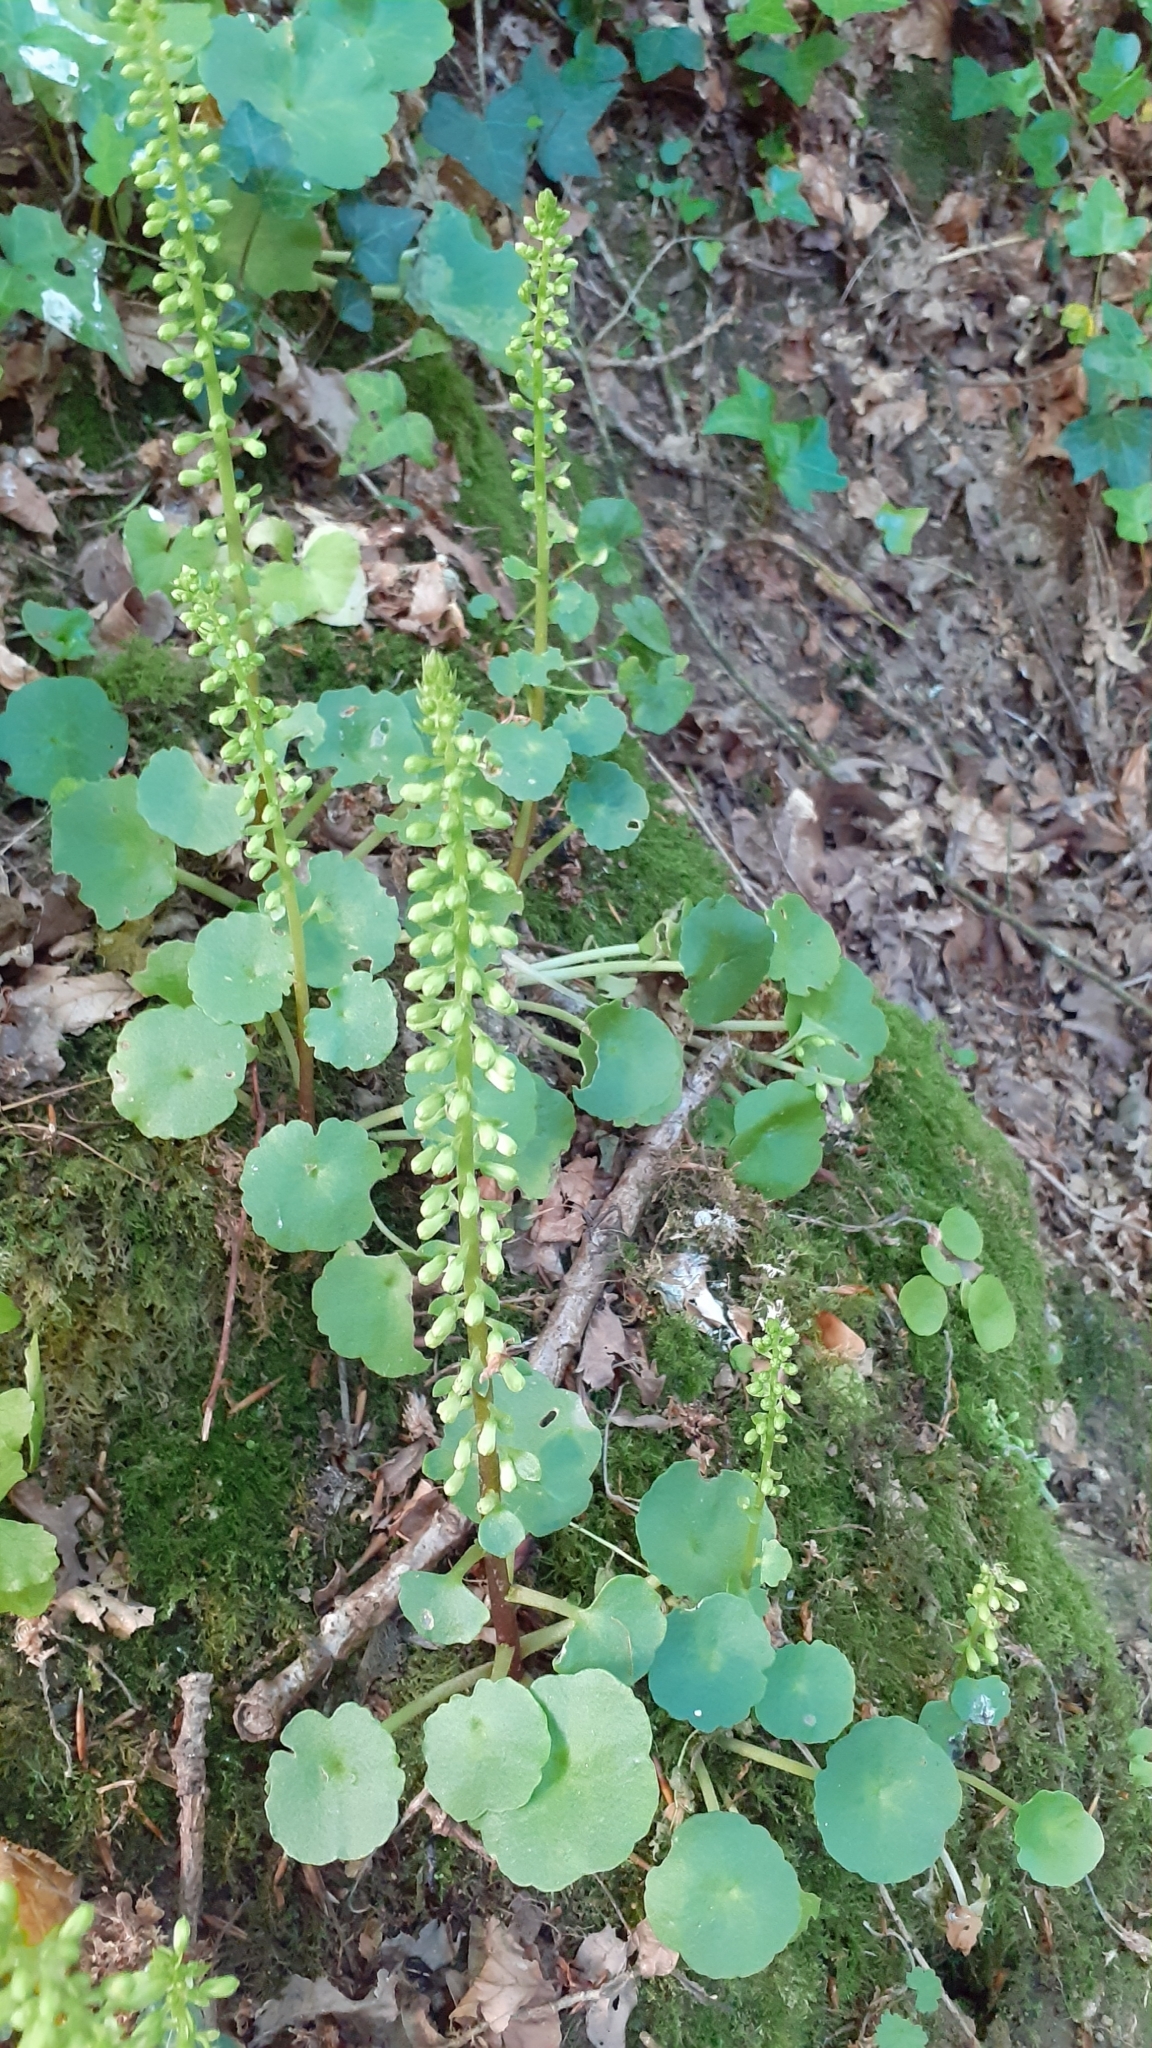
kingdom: Plantae
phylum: Tracheophyta
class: Magnoliopsida
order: Saxifragales
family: Crassulaceae
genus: Umbilicus
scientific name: Umbilicus rupestris
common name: Navelwort
